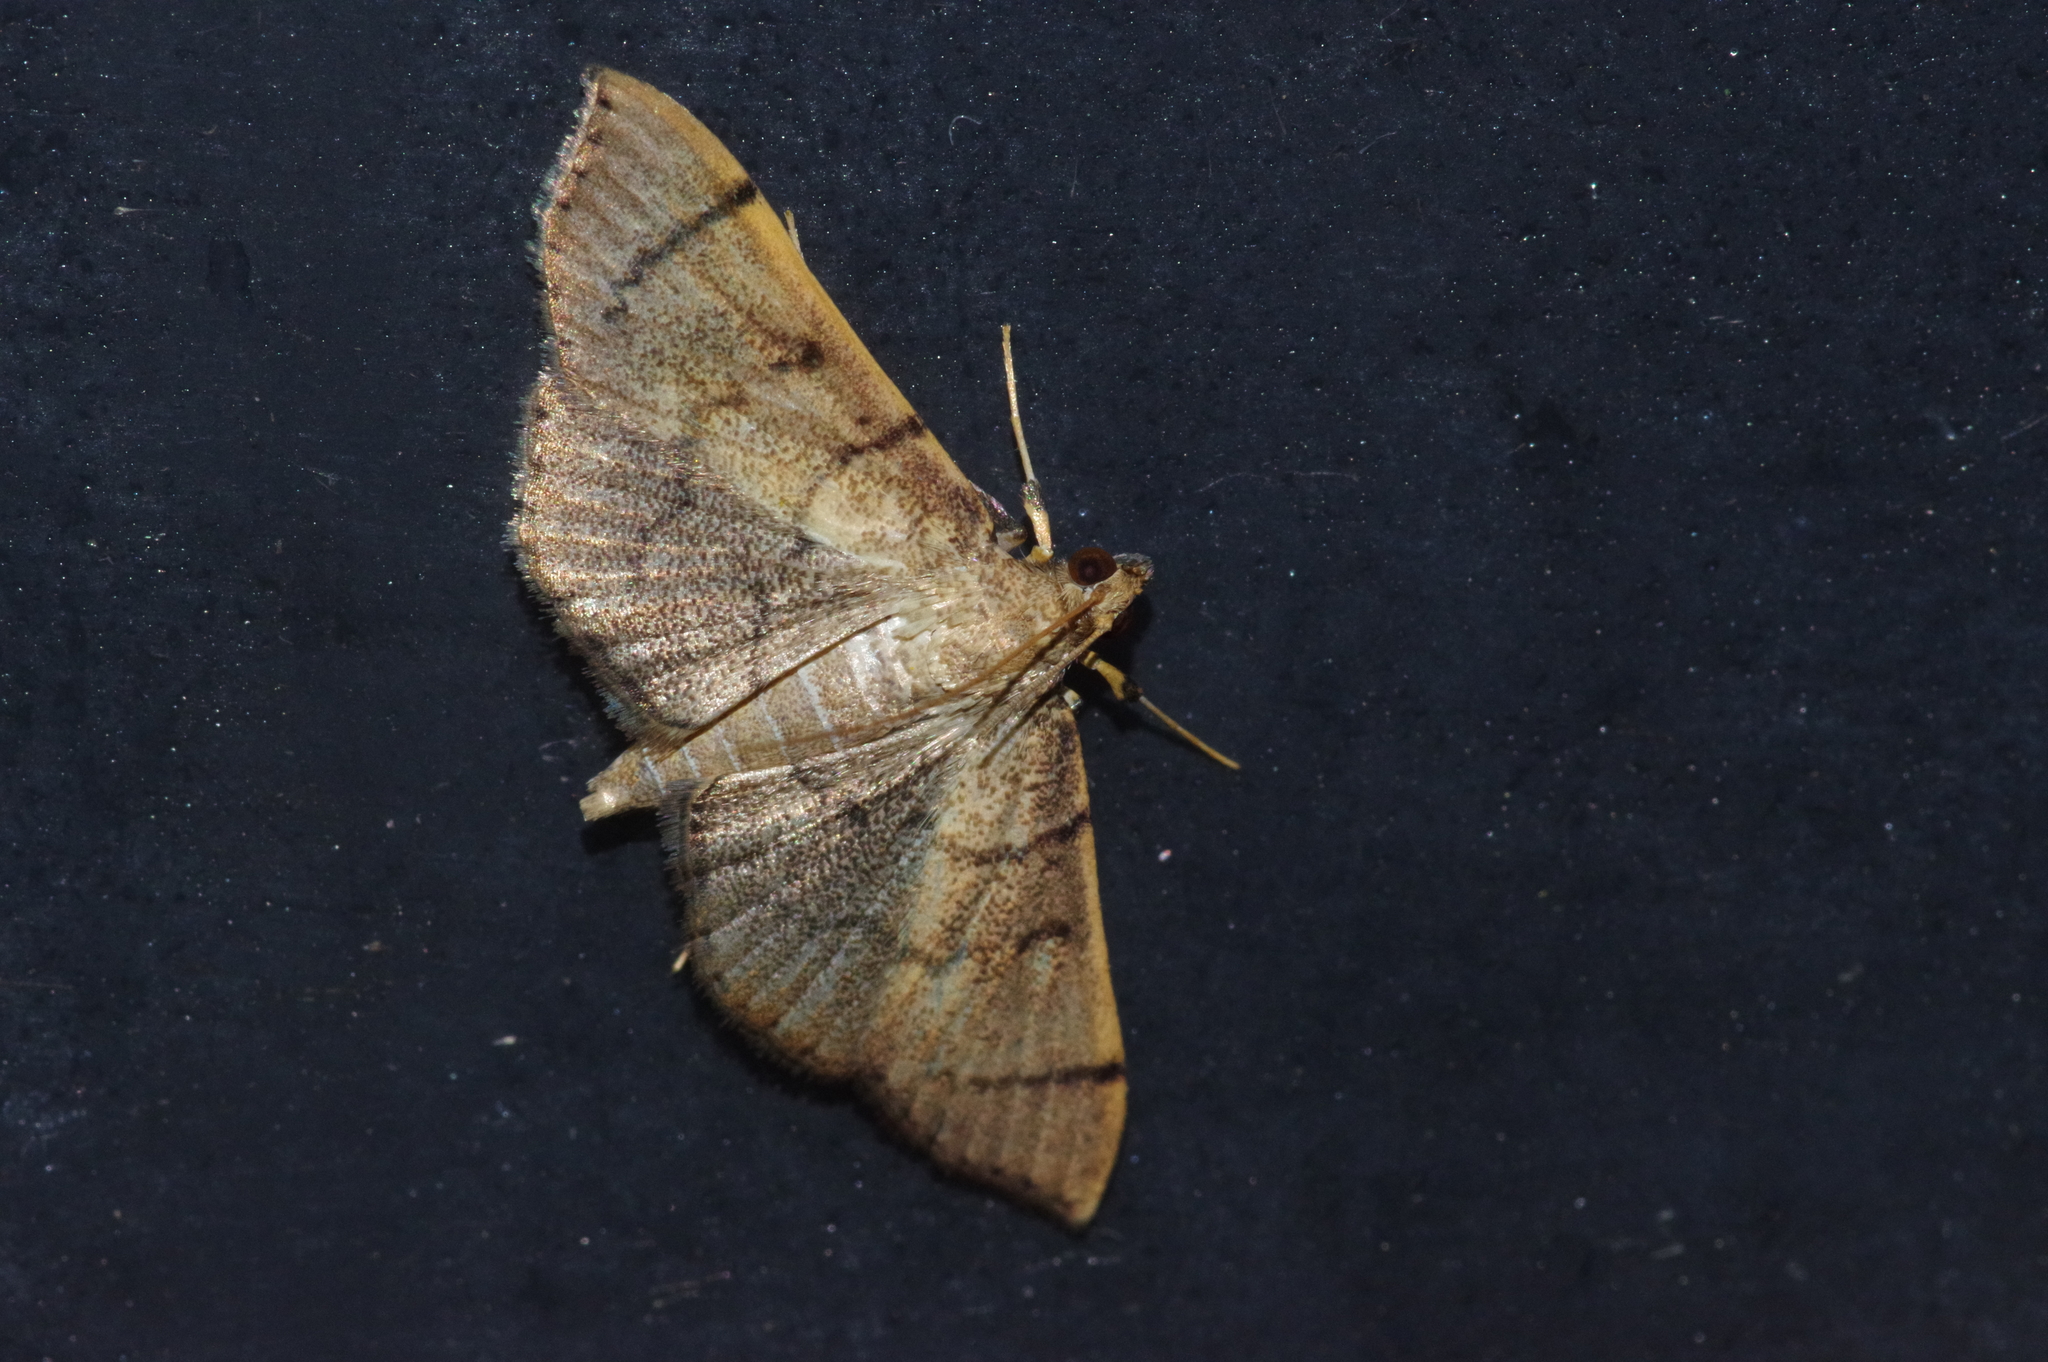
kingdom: Animalia
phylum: Arthropoda
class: Insecta
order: Lepidoptera
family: Crambidae
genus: Omiodes
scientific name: Omiodes decisalis
